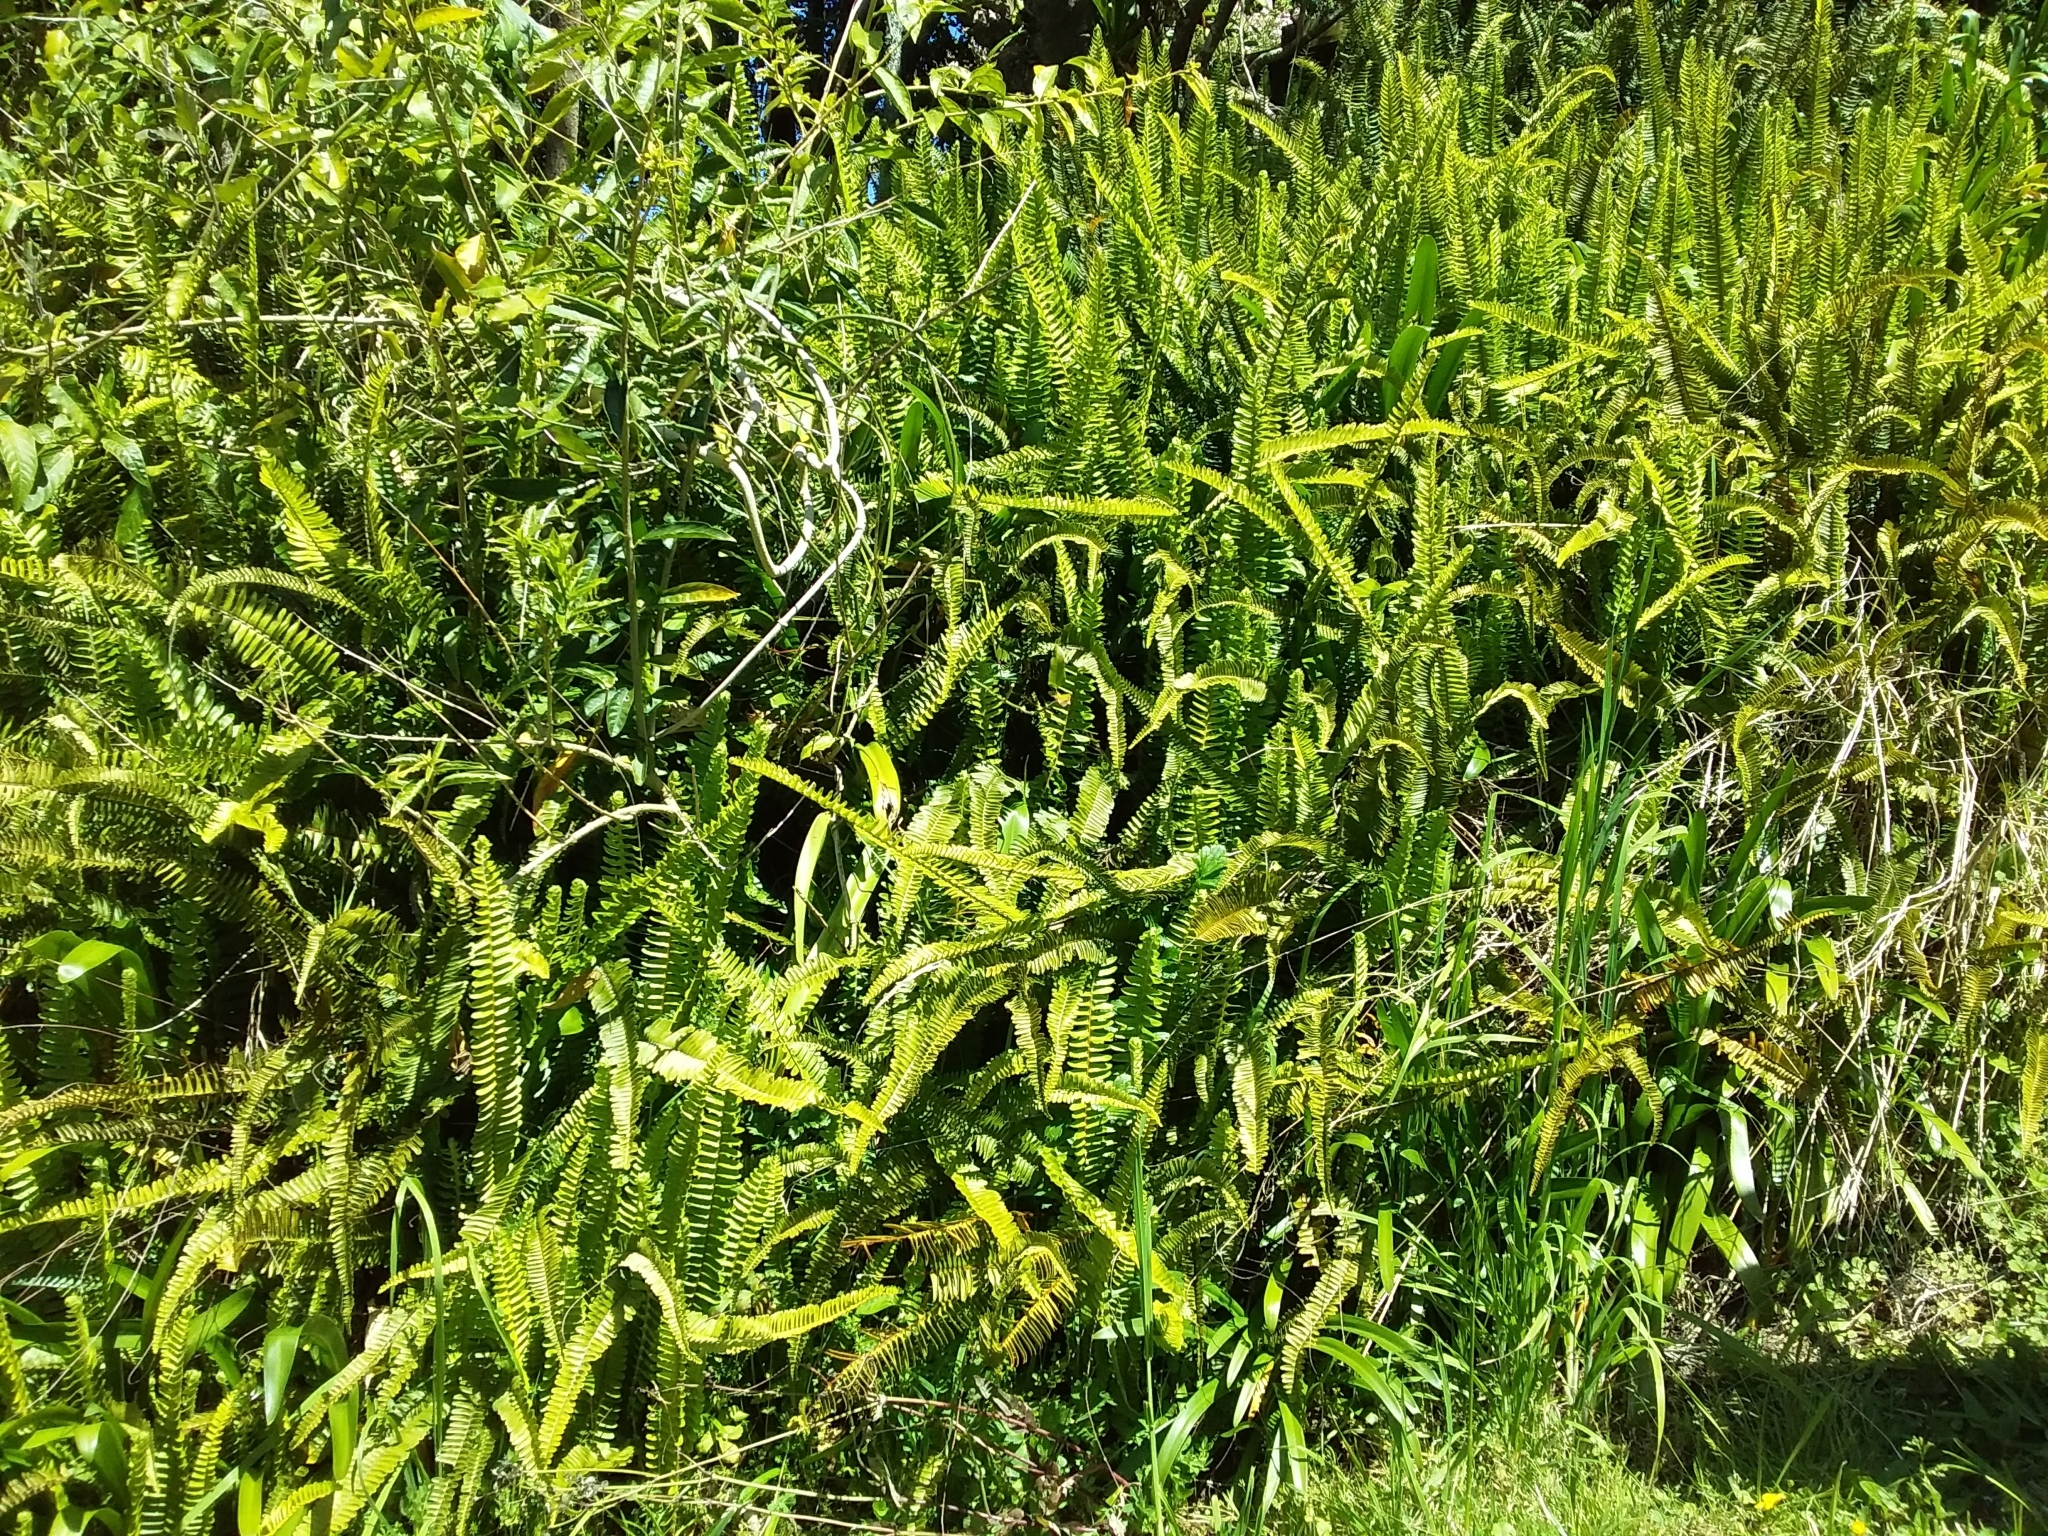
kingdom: Plantae
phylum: Tracheophyta
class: Polypodiopsida
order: Polypodiales
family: Nephrolepidaceae
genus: Nephrolepis
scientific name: Nephrolepis cordifolia
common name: Narrow swordfern
